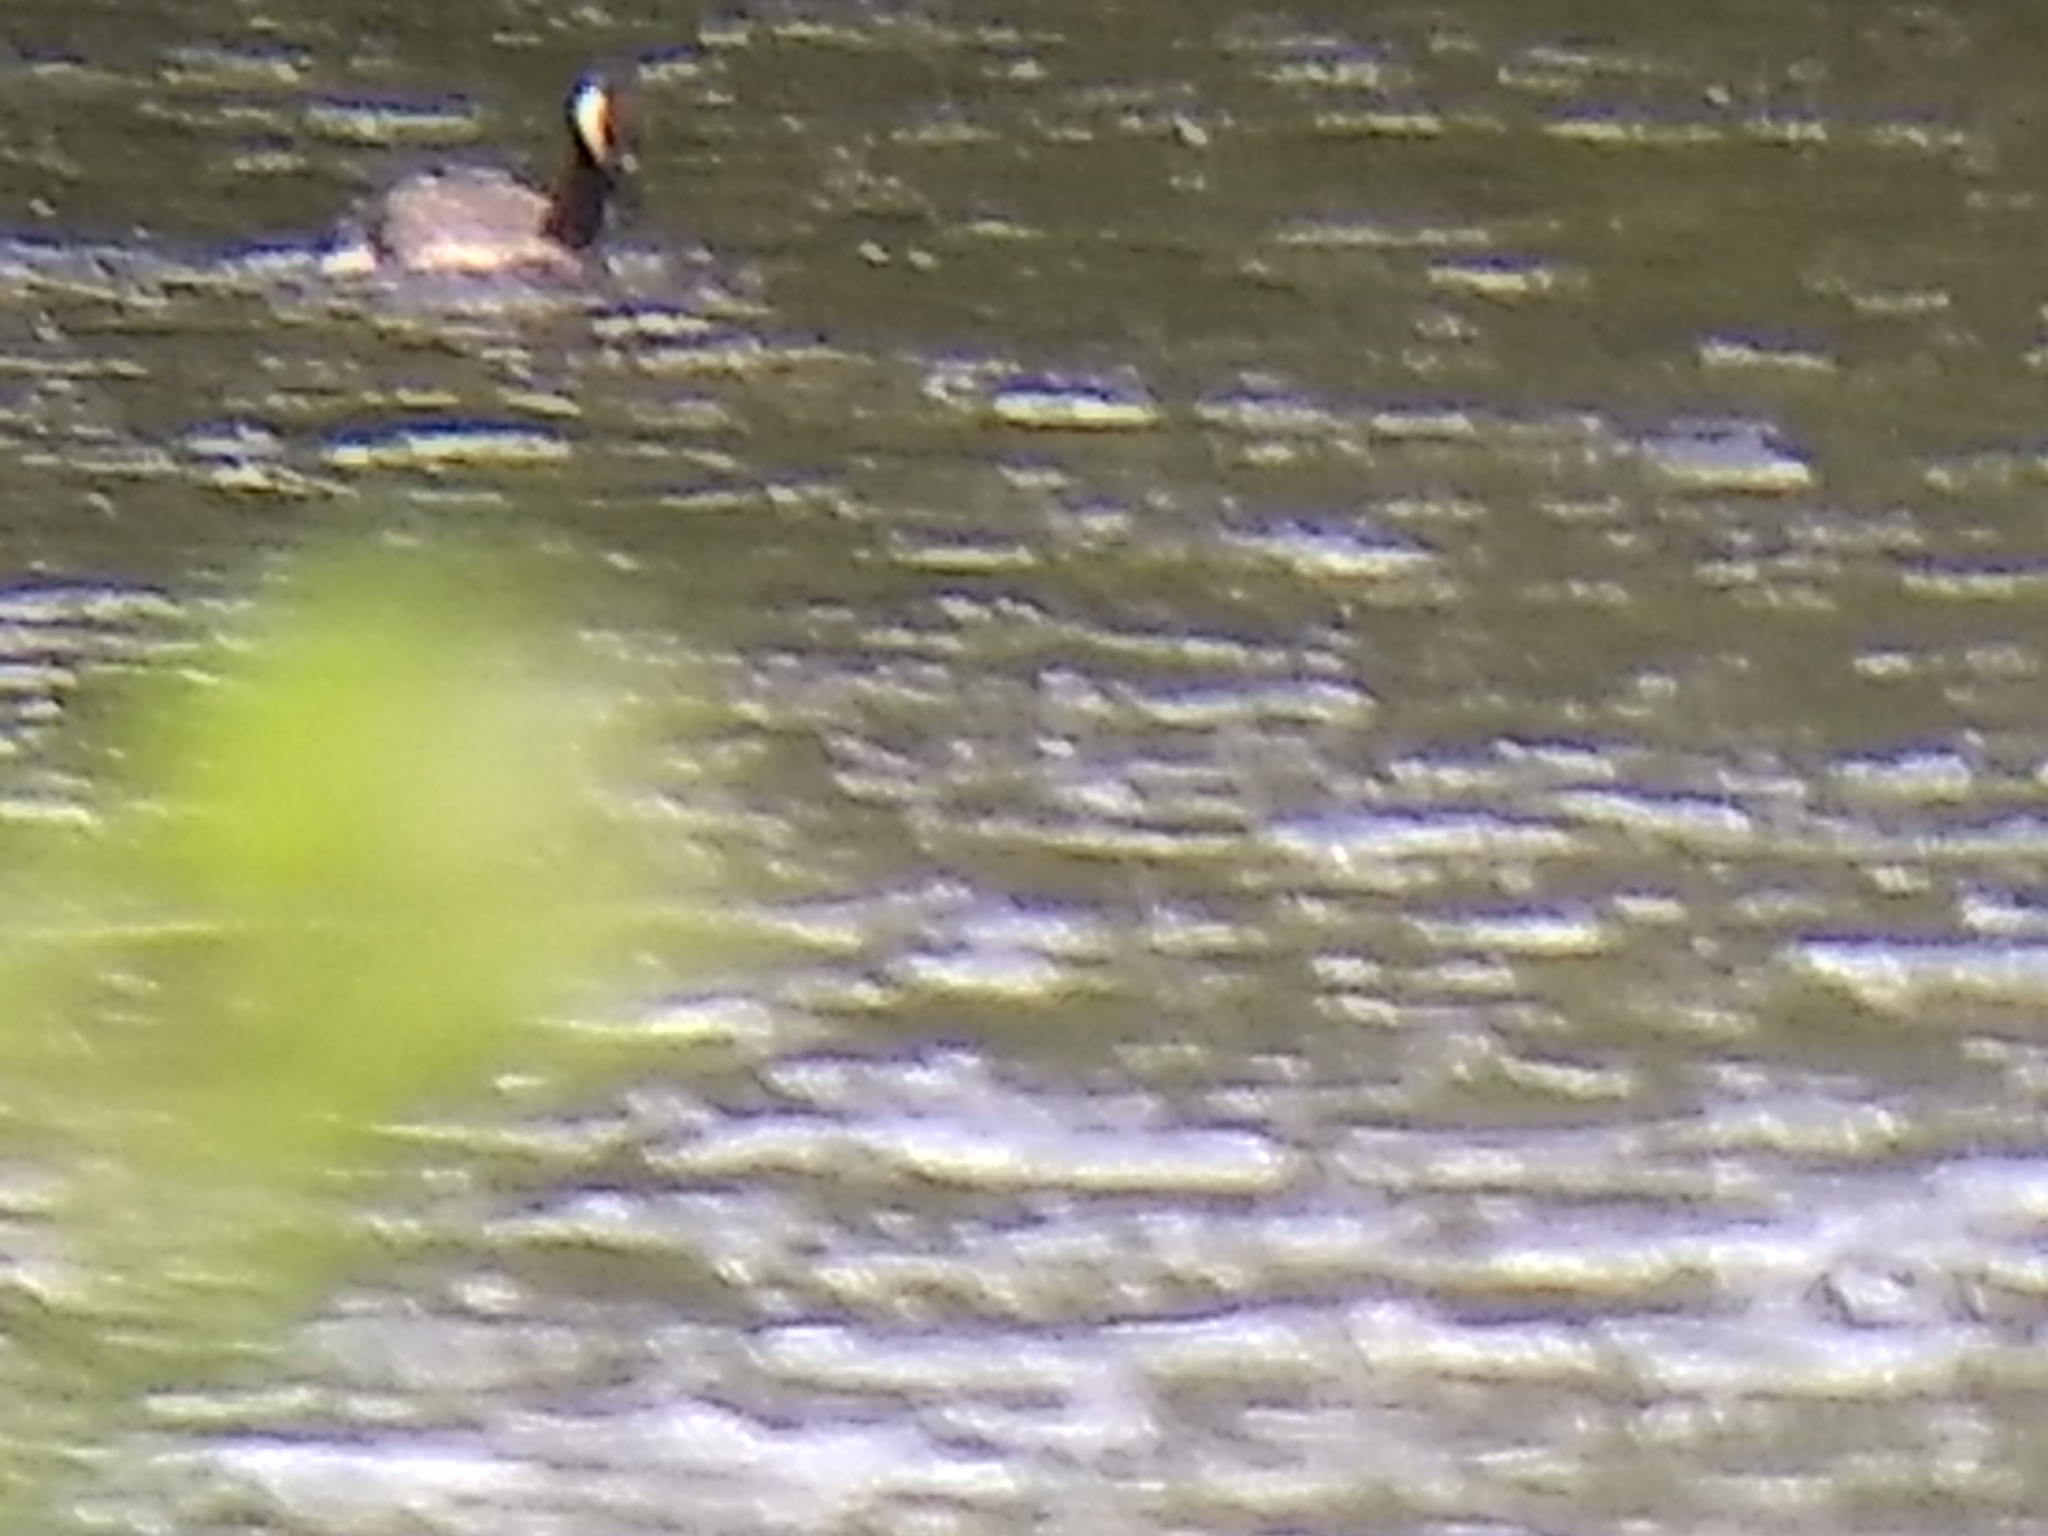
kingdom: Animalia
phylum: Chordata
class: Aves
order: Anseriformes
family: Anatidae
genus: Branta
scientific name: Branta canadensis
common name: Canada goose
